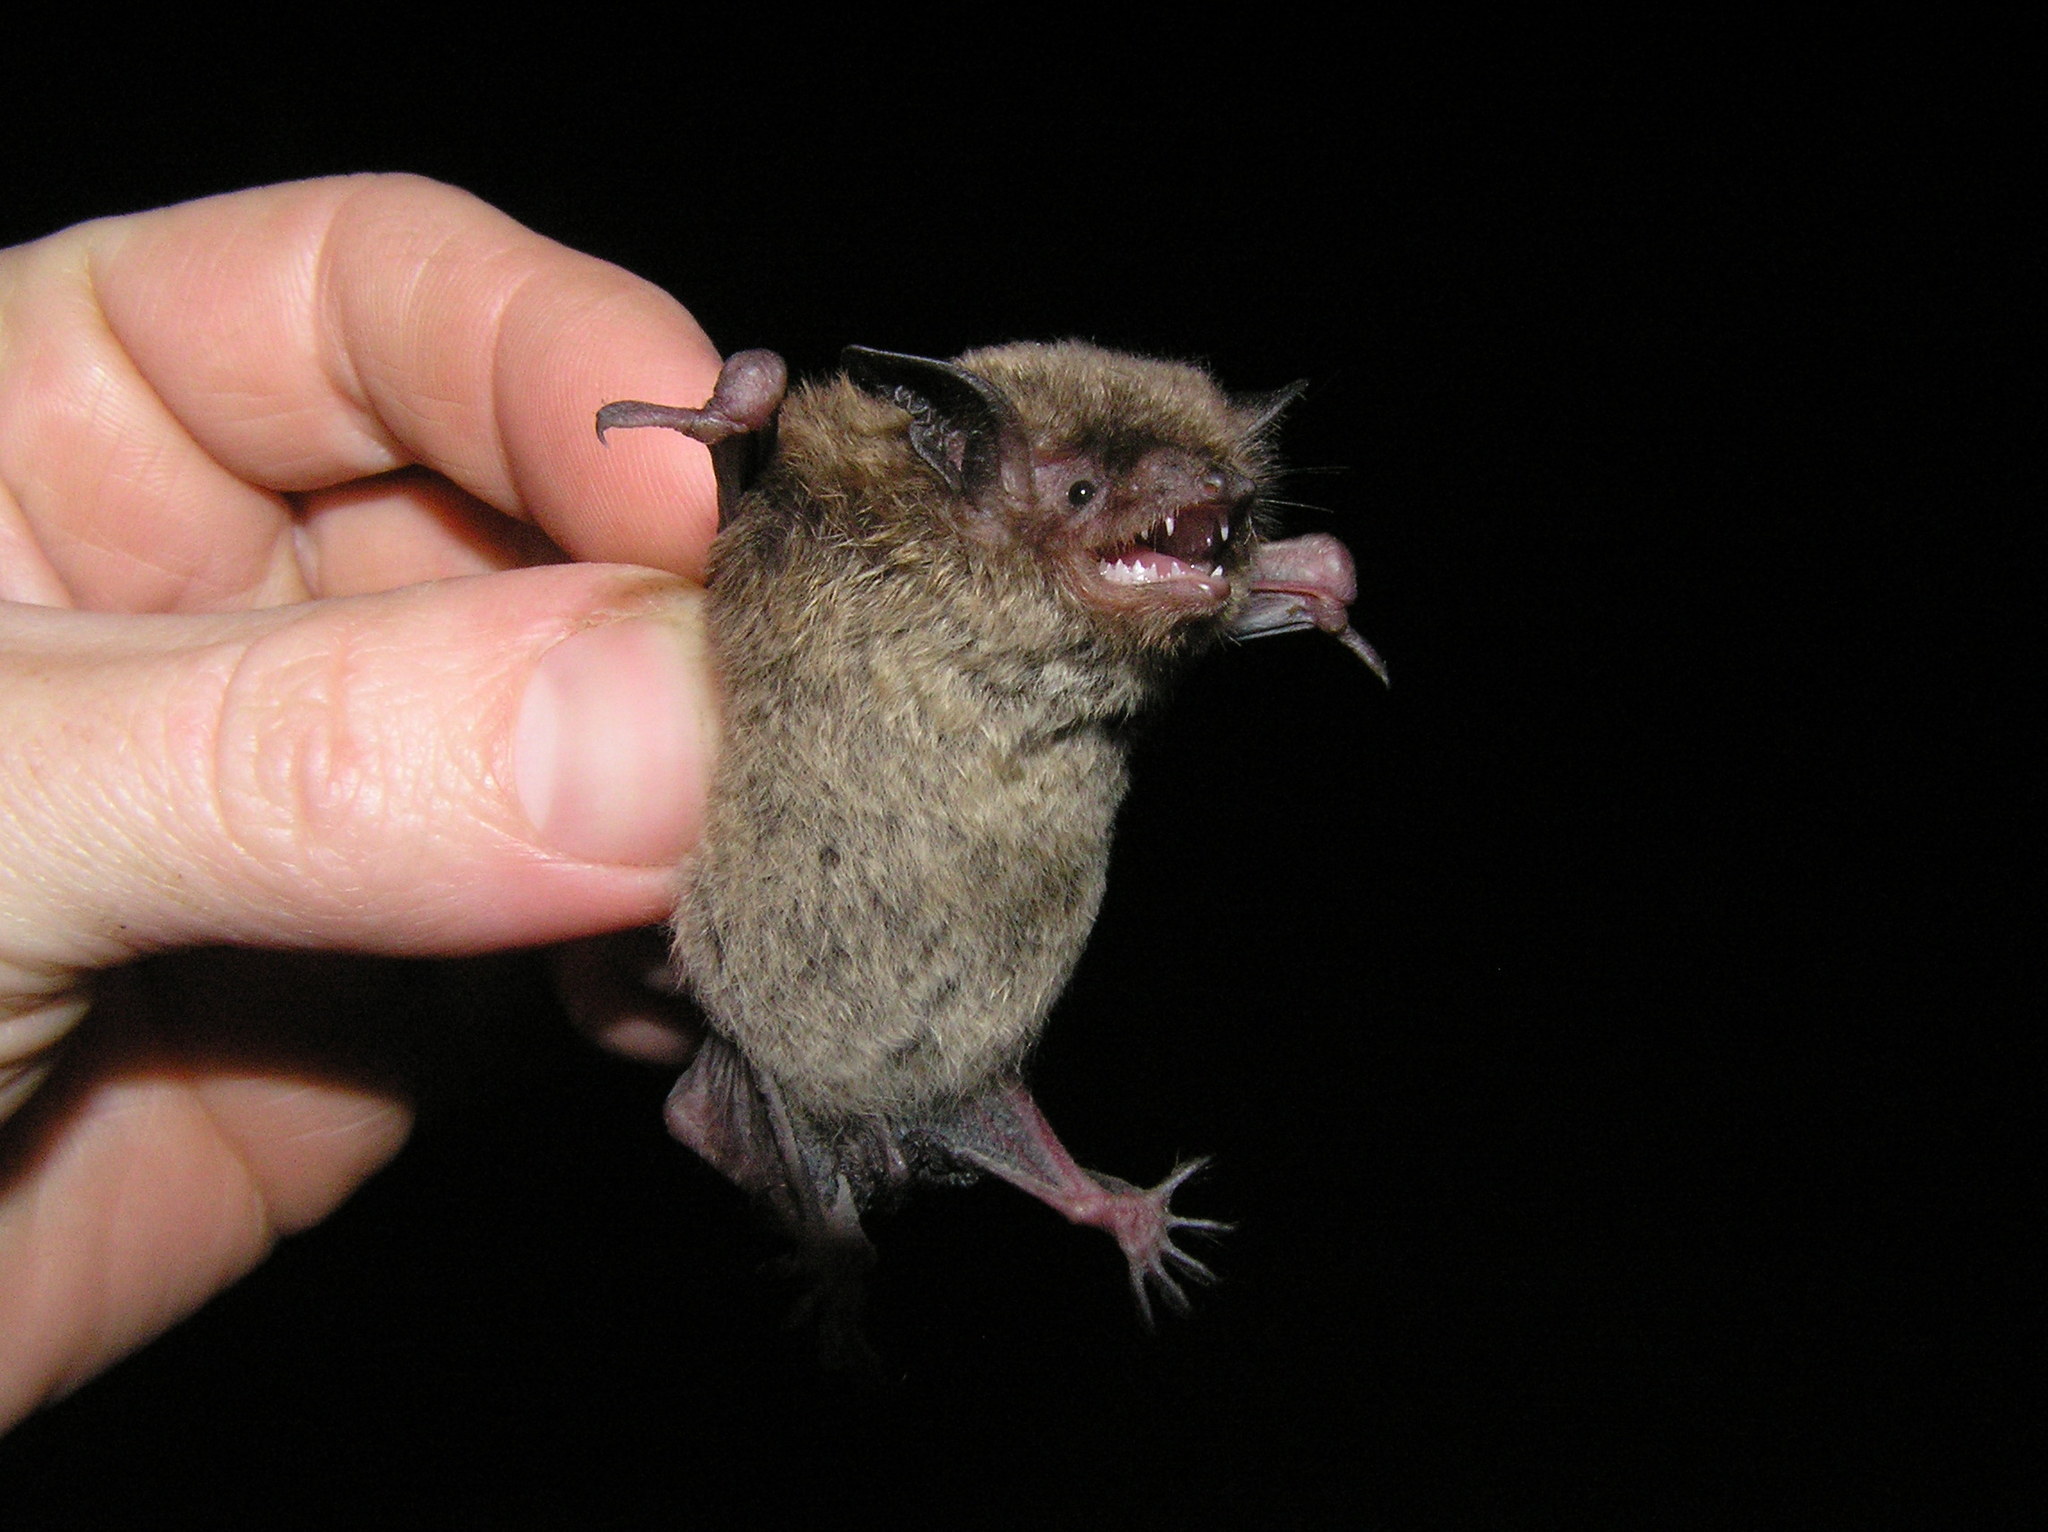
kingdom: Animalia
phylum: Chordata
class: Mammalia
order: Chiroptera
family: Vespertilionidae
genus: Myotis
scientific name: Myotis lucifugus
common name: Little brown bat
